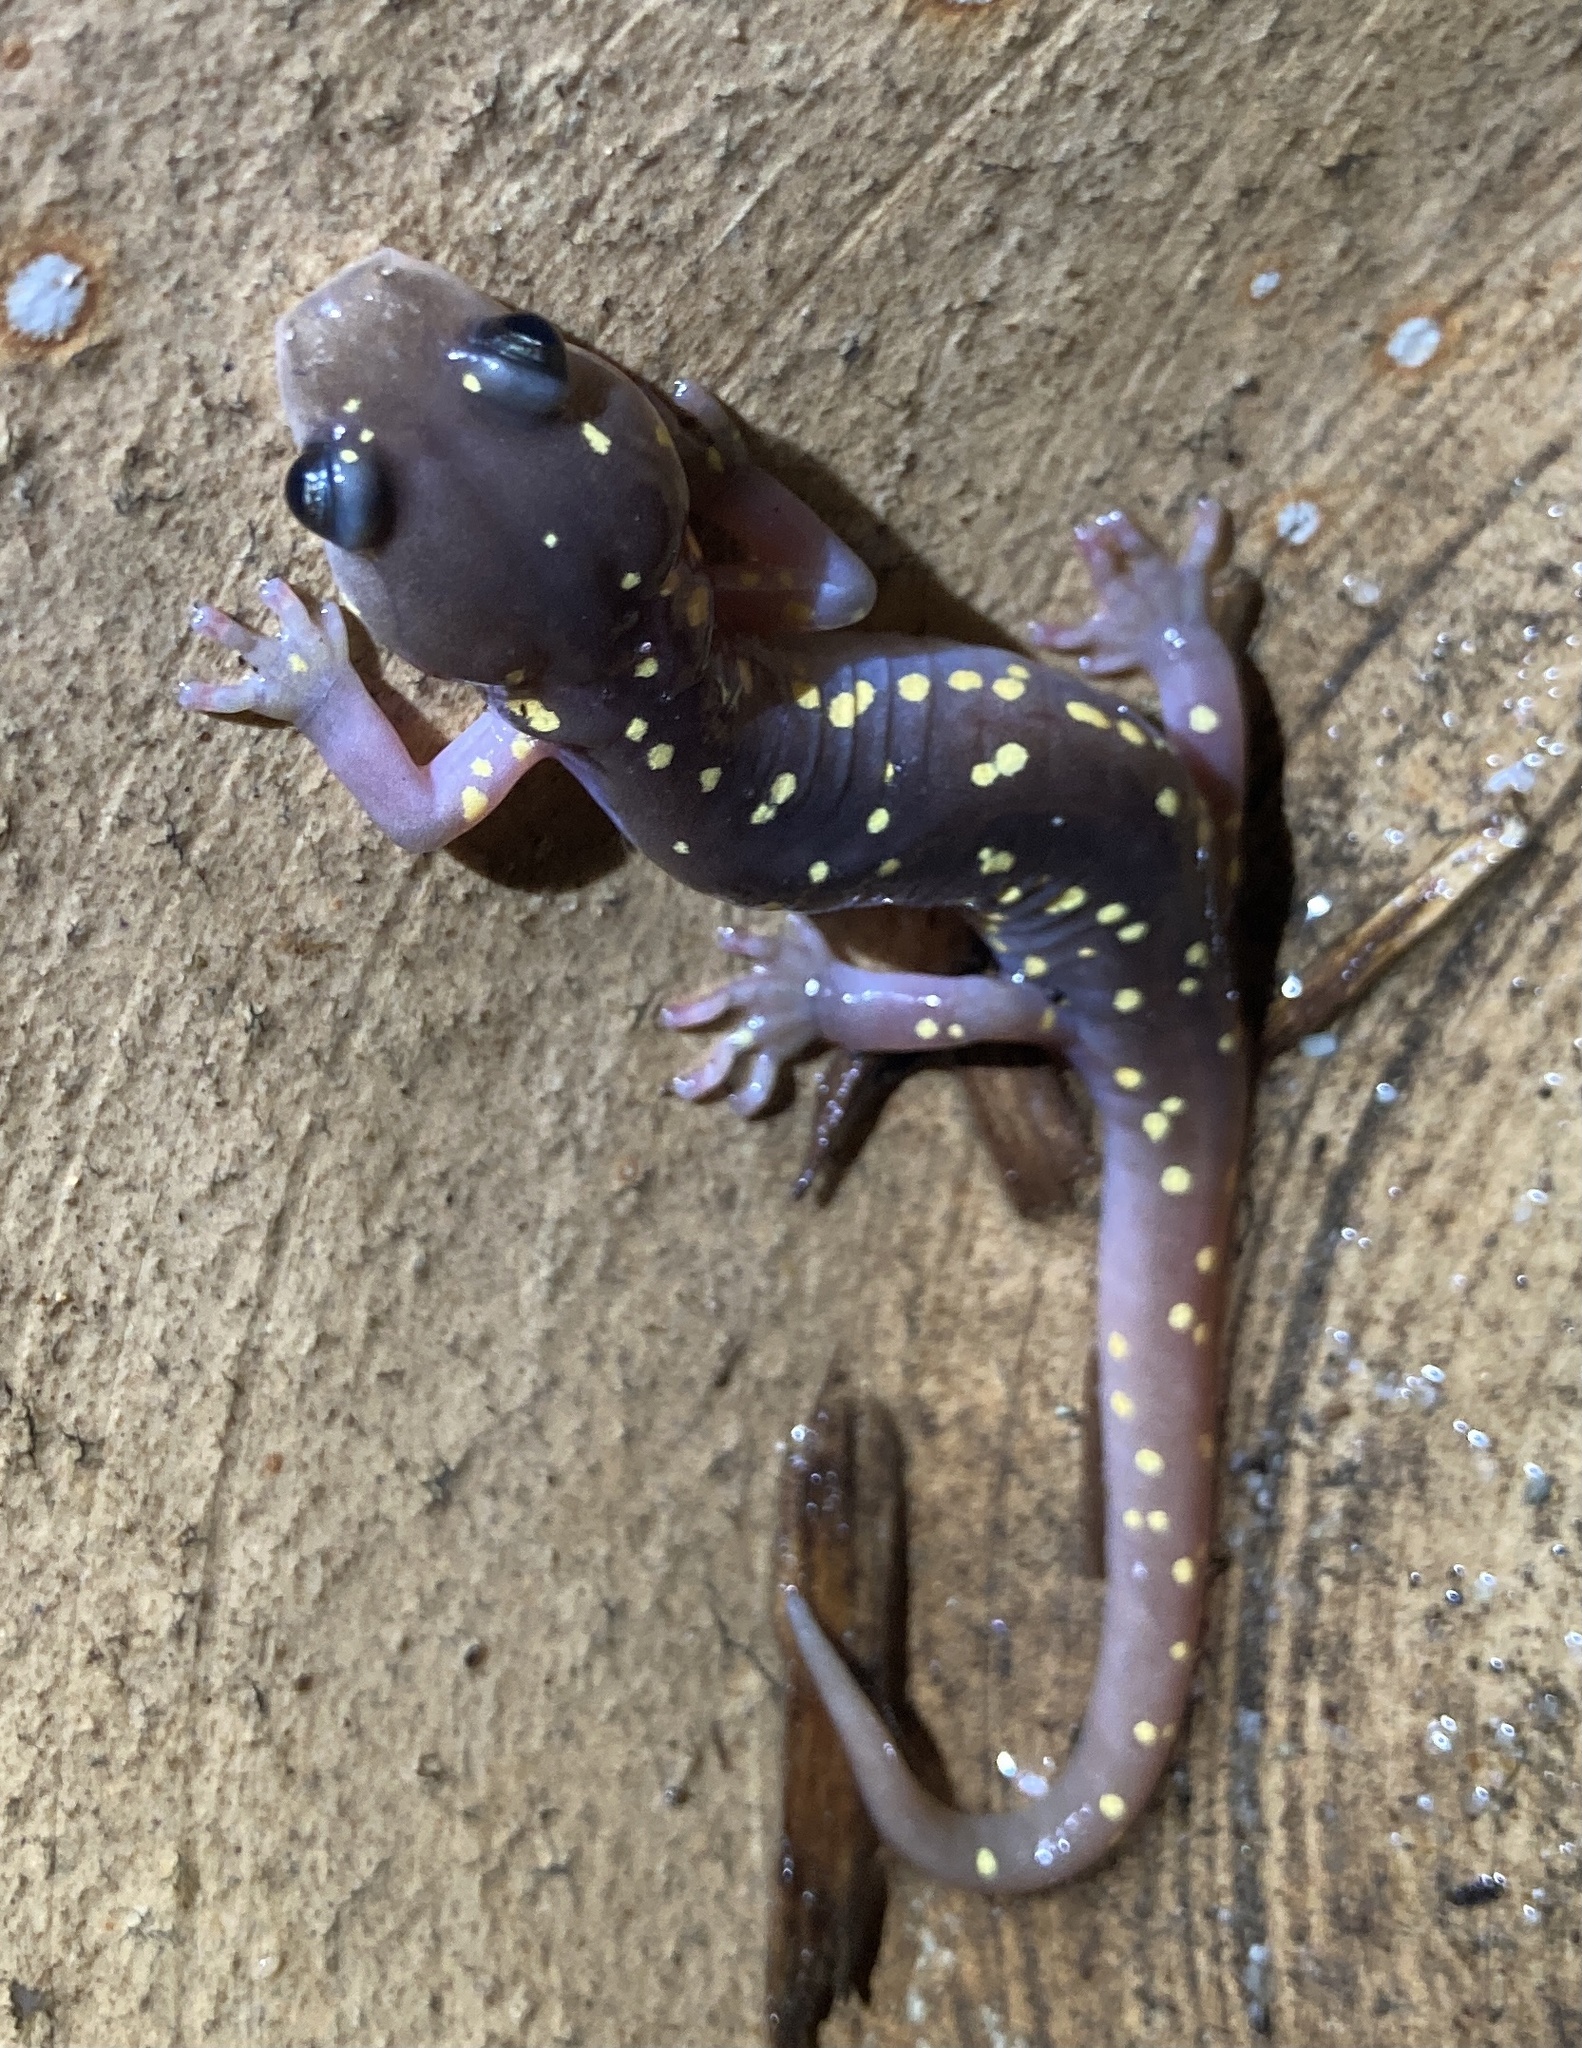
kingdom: Animalia
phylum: Chordata
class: Amphibia
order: Caudata
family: Plethodontidae
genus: Aneides
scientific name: Aneides lugubris
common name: Arboreal salamander
